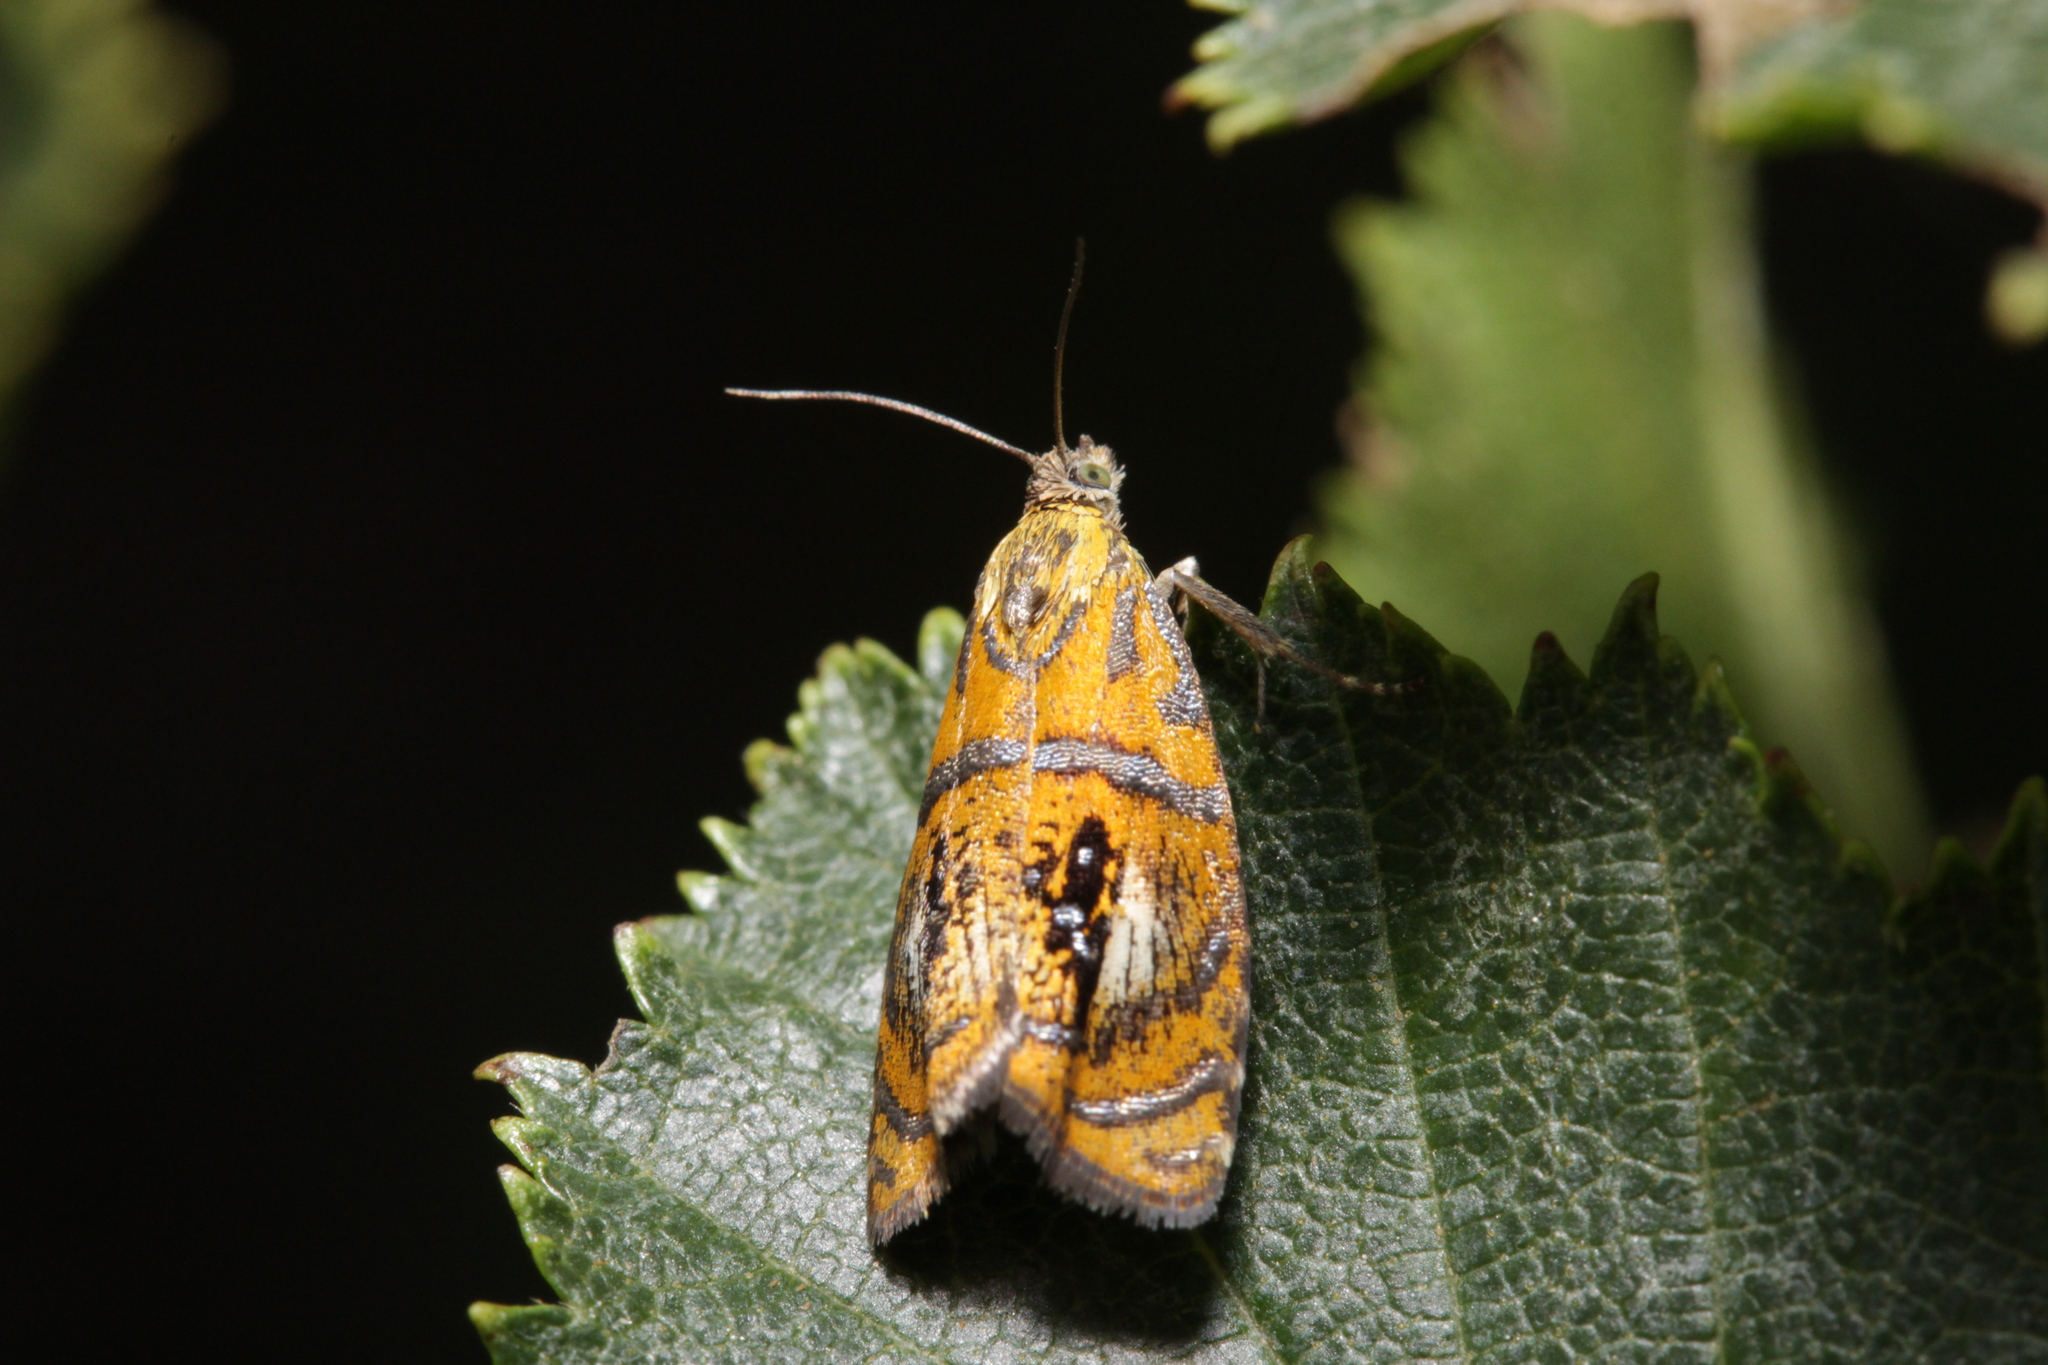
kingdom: Animalia
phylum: Arthropoda
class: Insecta
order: Lepidoptera
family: Tortricidae
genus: Olethreutes
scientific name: Olethreutes arcuella
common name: Arched marble
